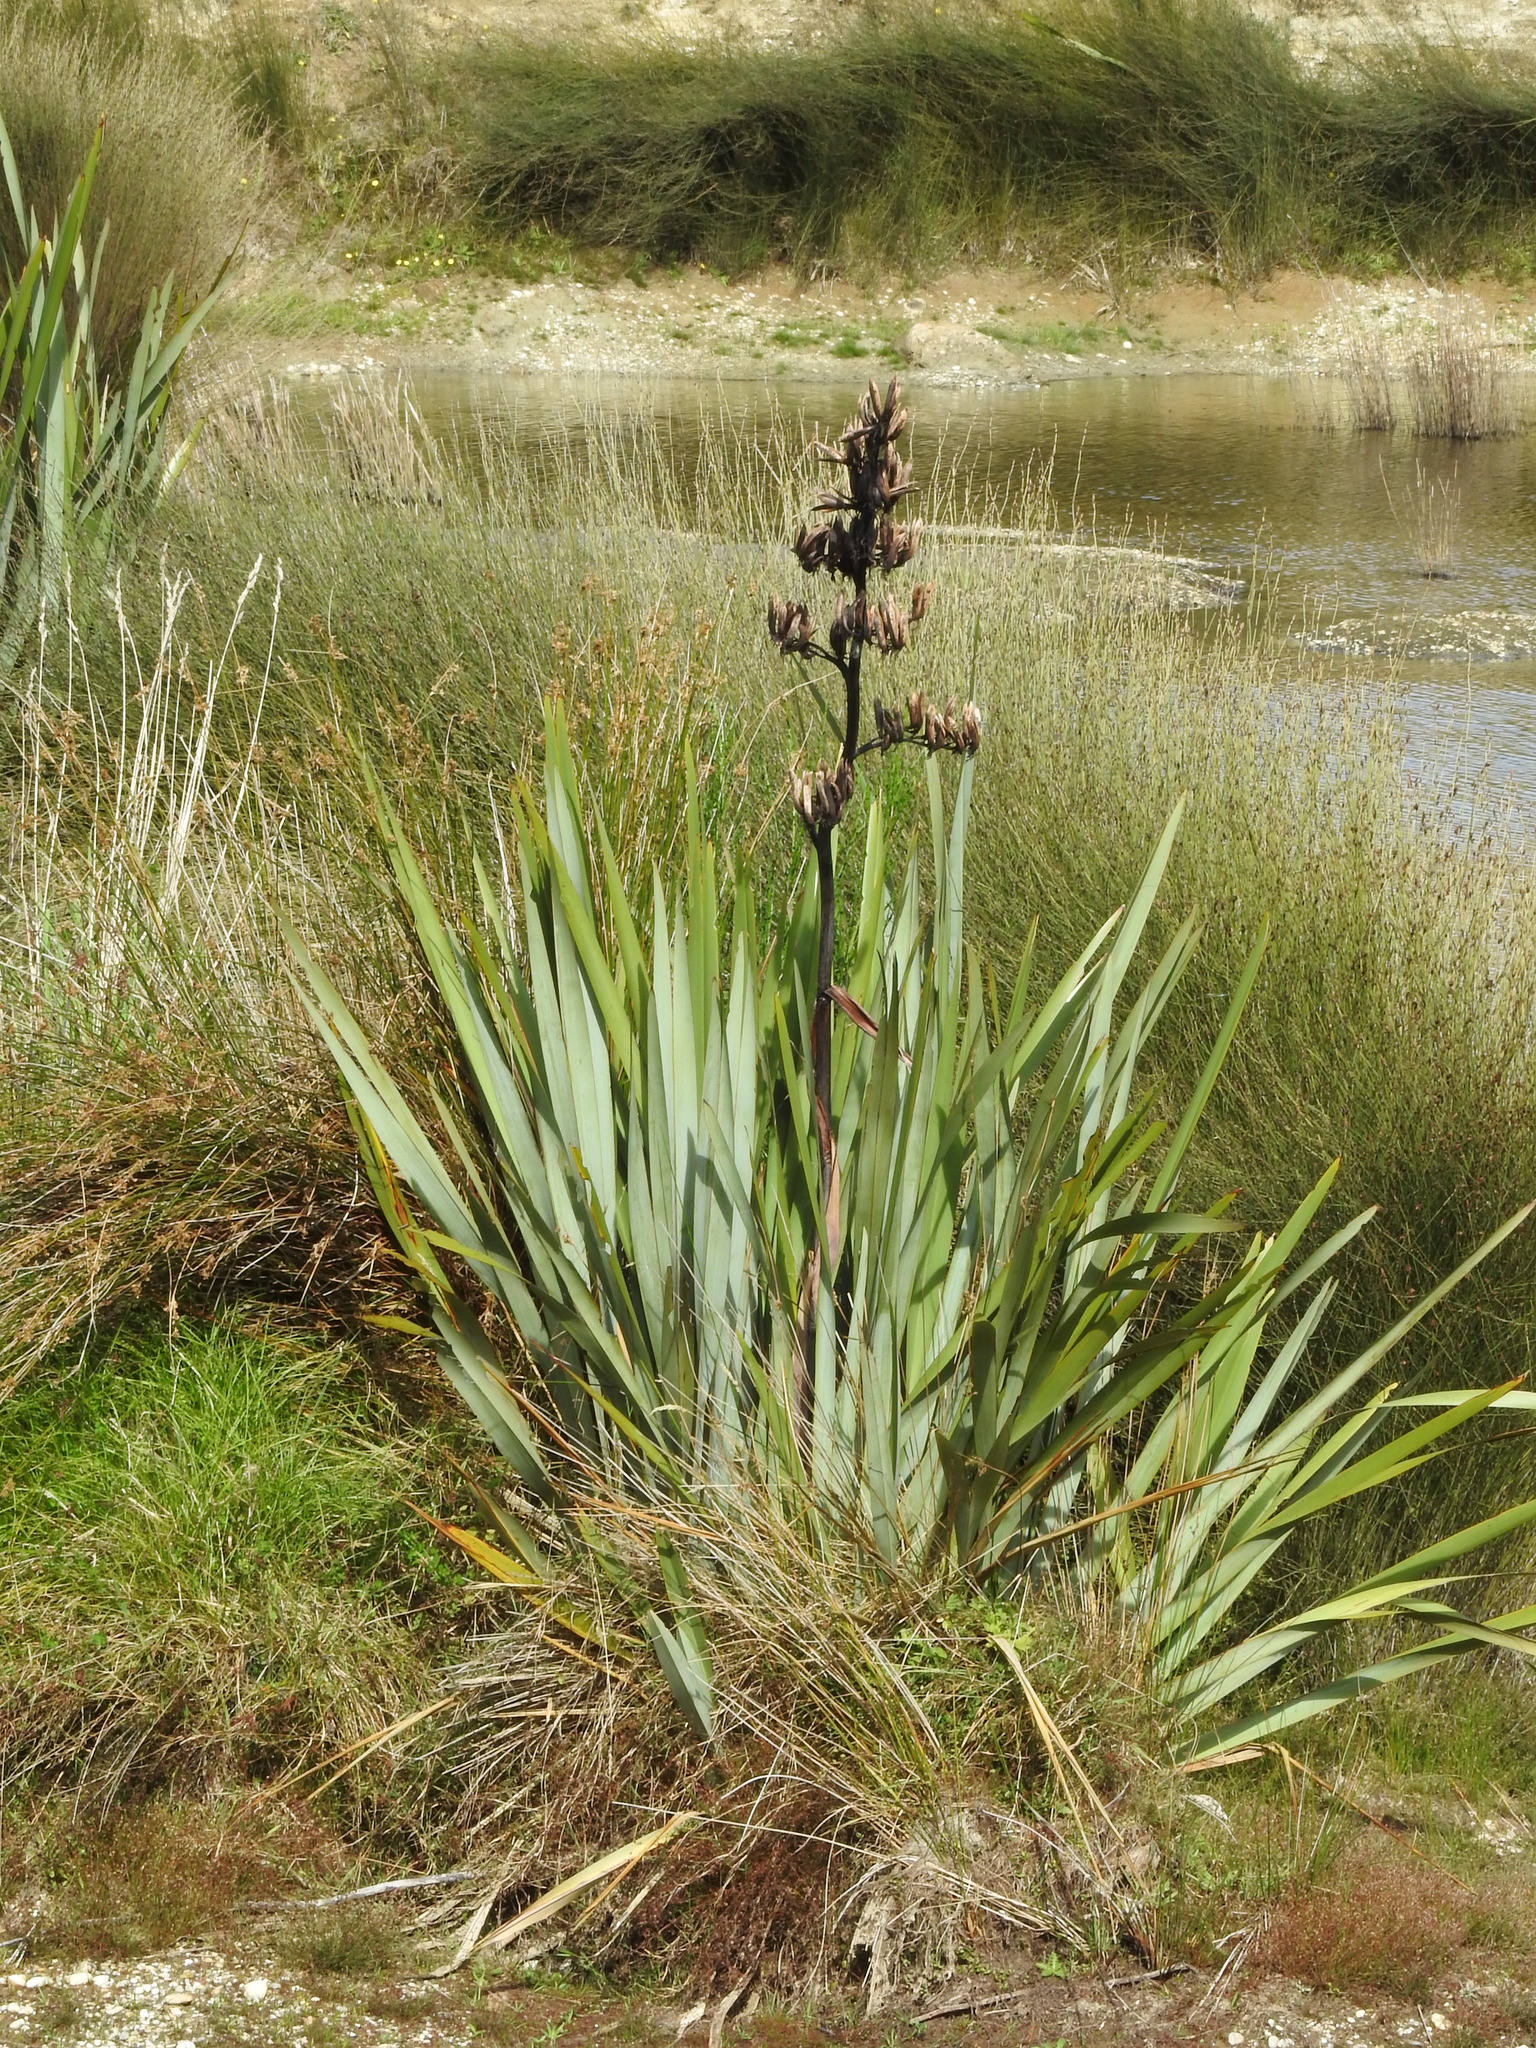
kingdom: Plantae
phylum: Tracheophyta
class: Liliopsida
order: Asparagales
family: Asphodelaceae
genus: Phormium
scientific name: Phormium tenax
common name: New zealand flax
